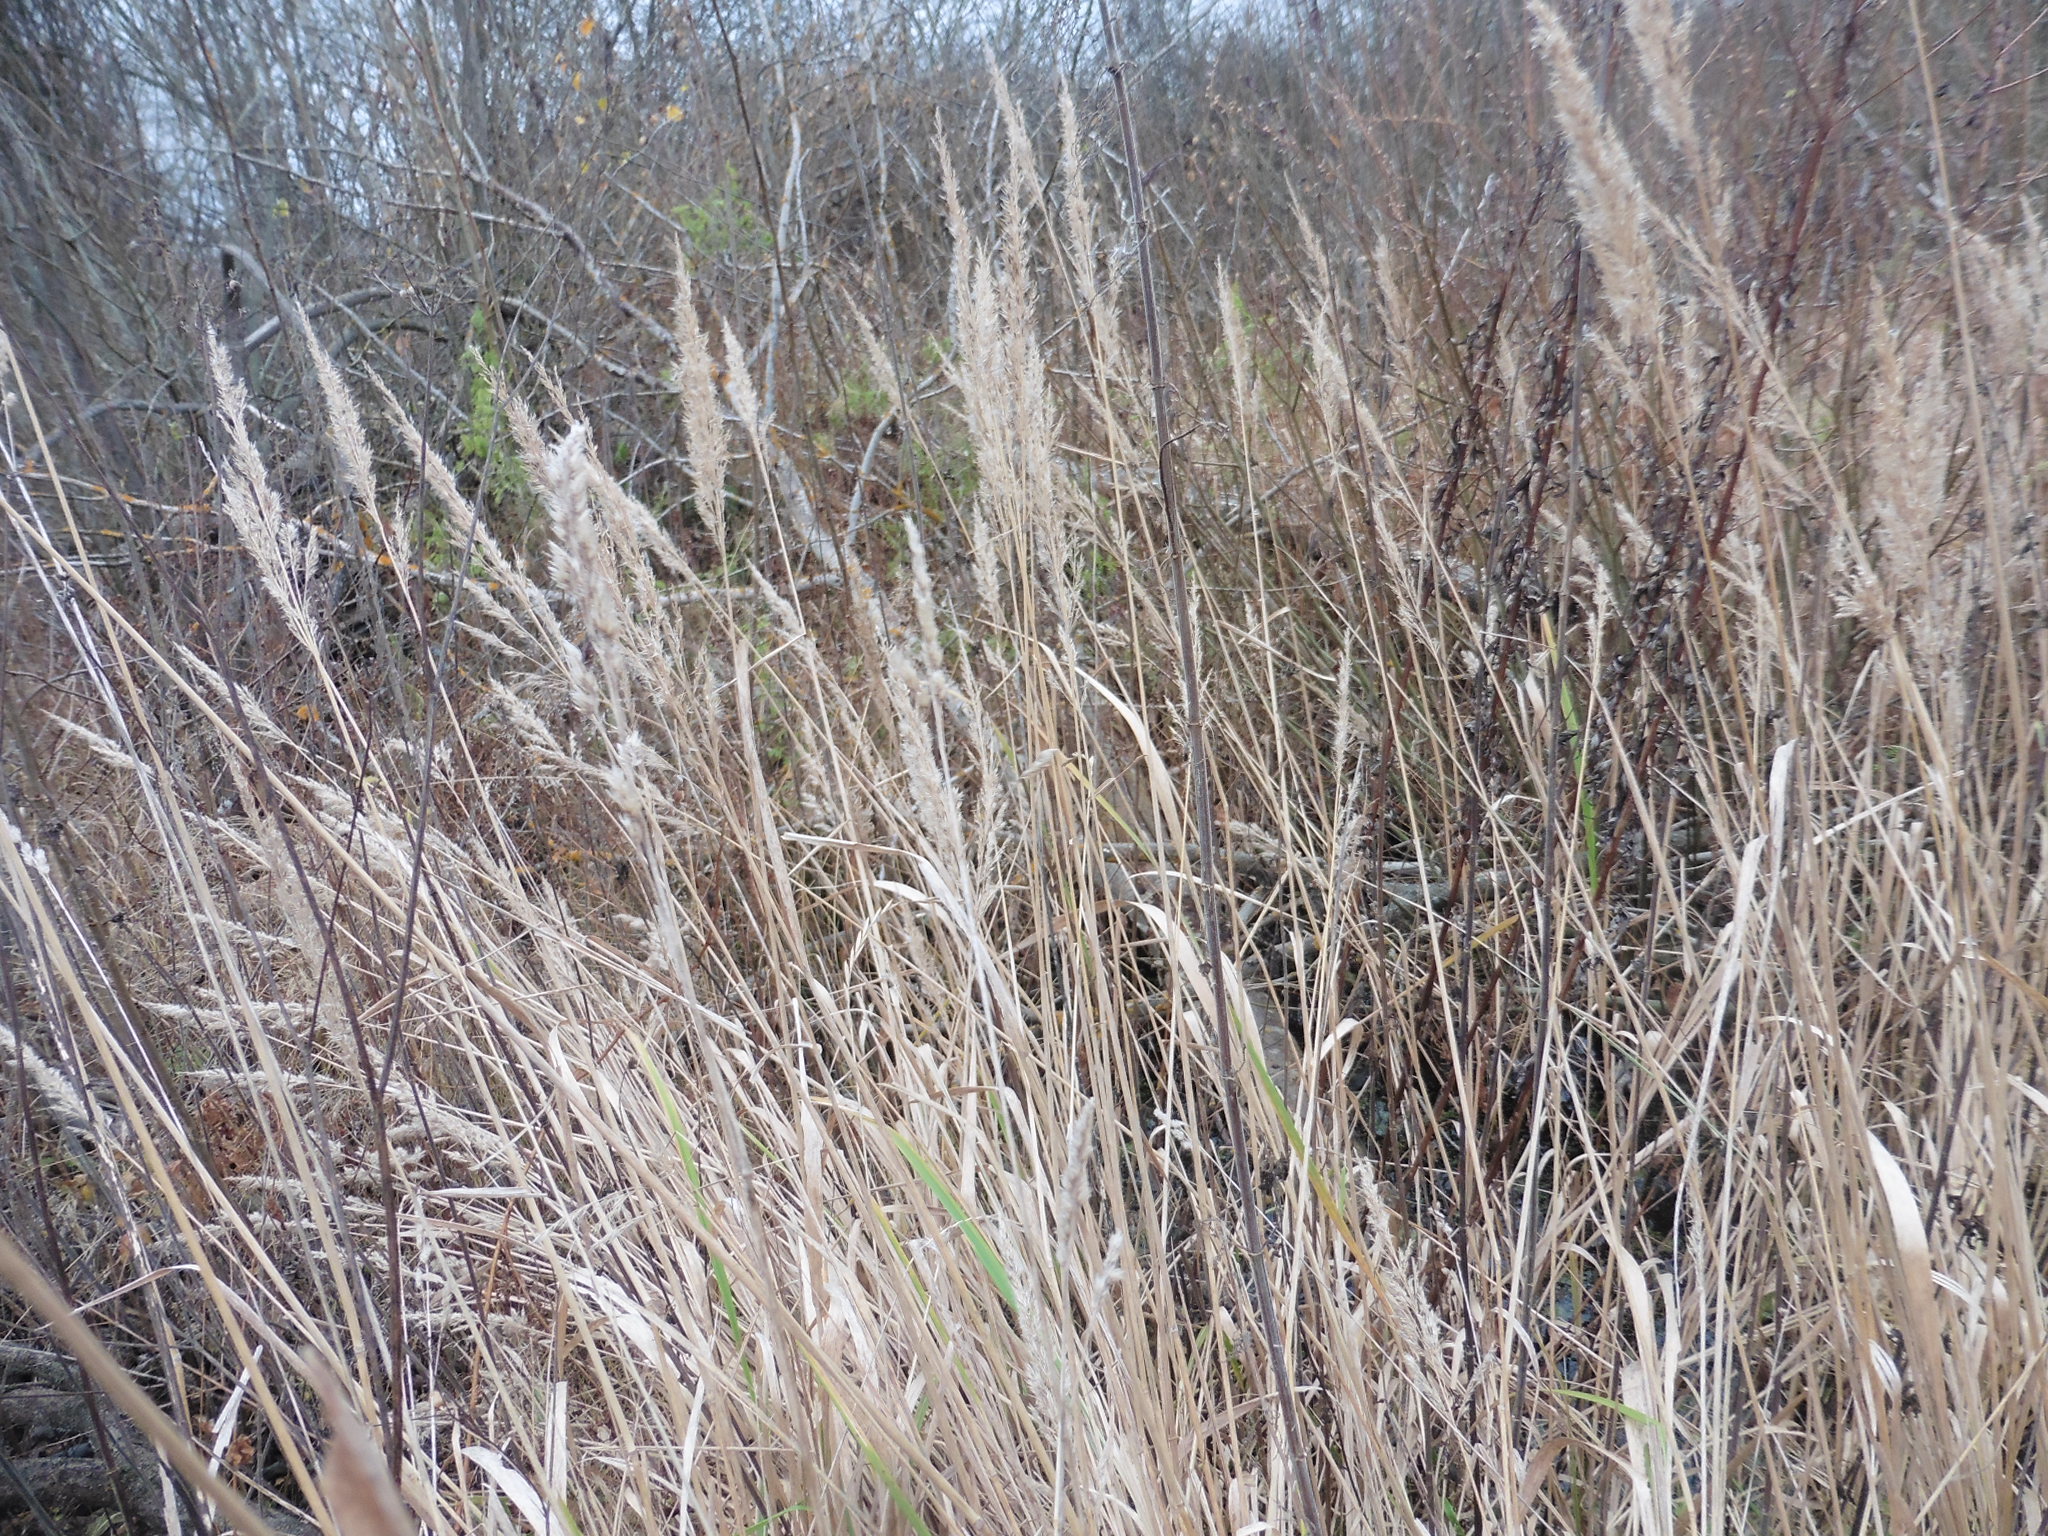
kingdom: Plantae
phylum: Tracheophyta
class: Liliopsida
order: Poales
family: Poaceae
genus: Calamagrostis
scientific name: Calamagrostis epigejos
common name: Wood small-reed
